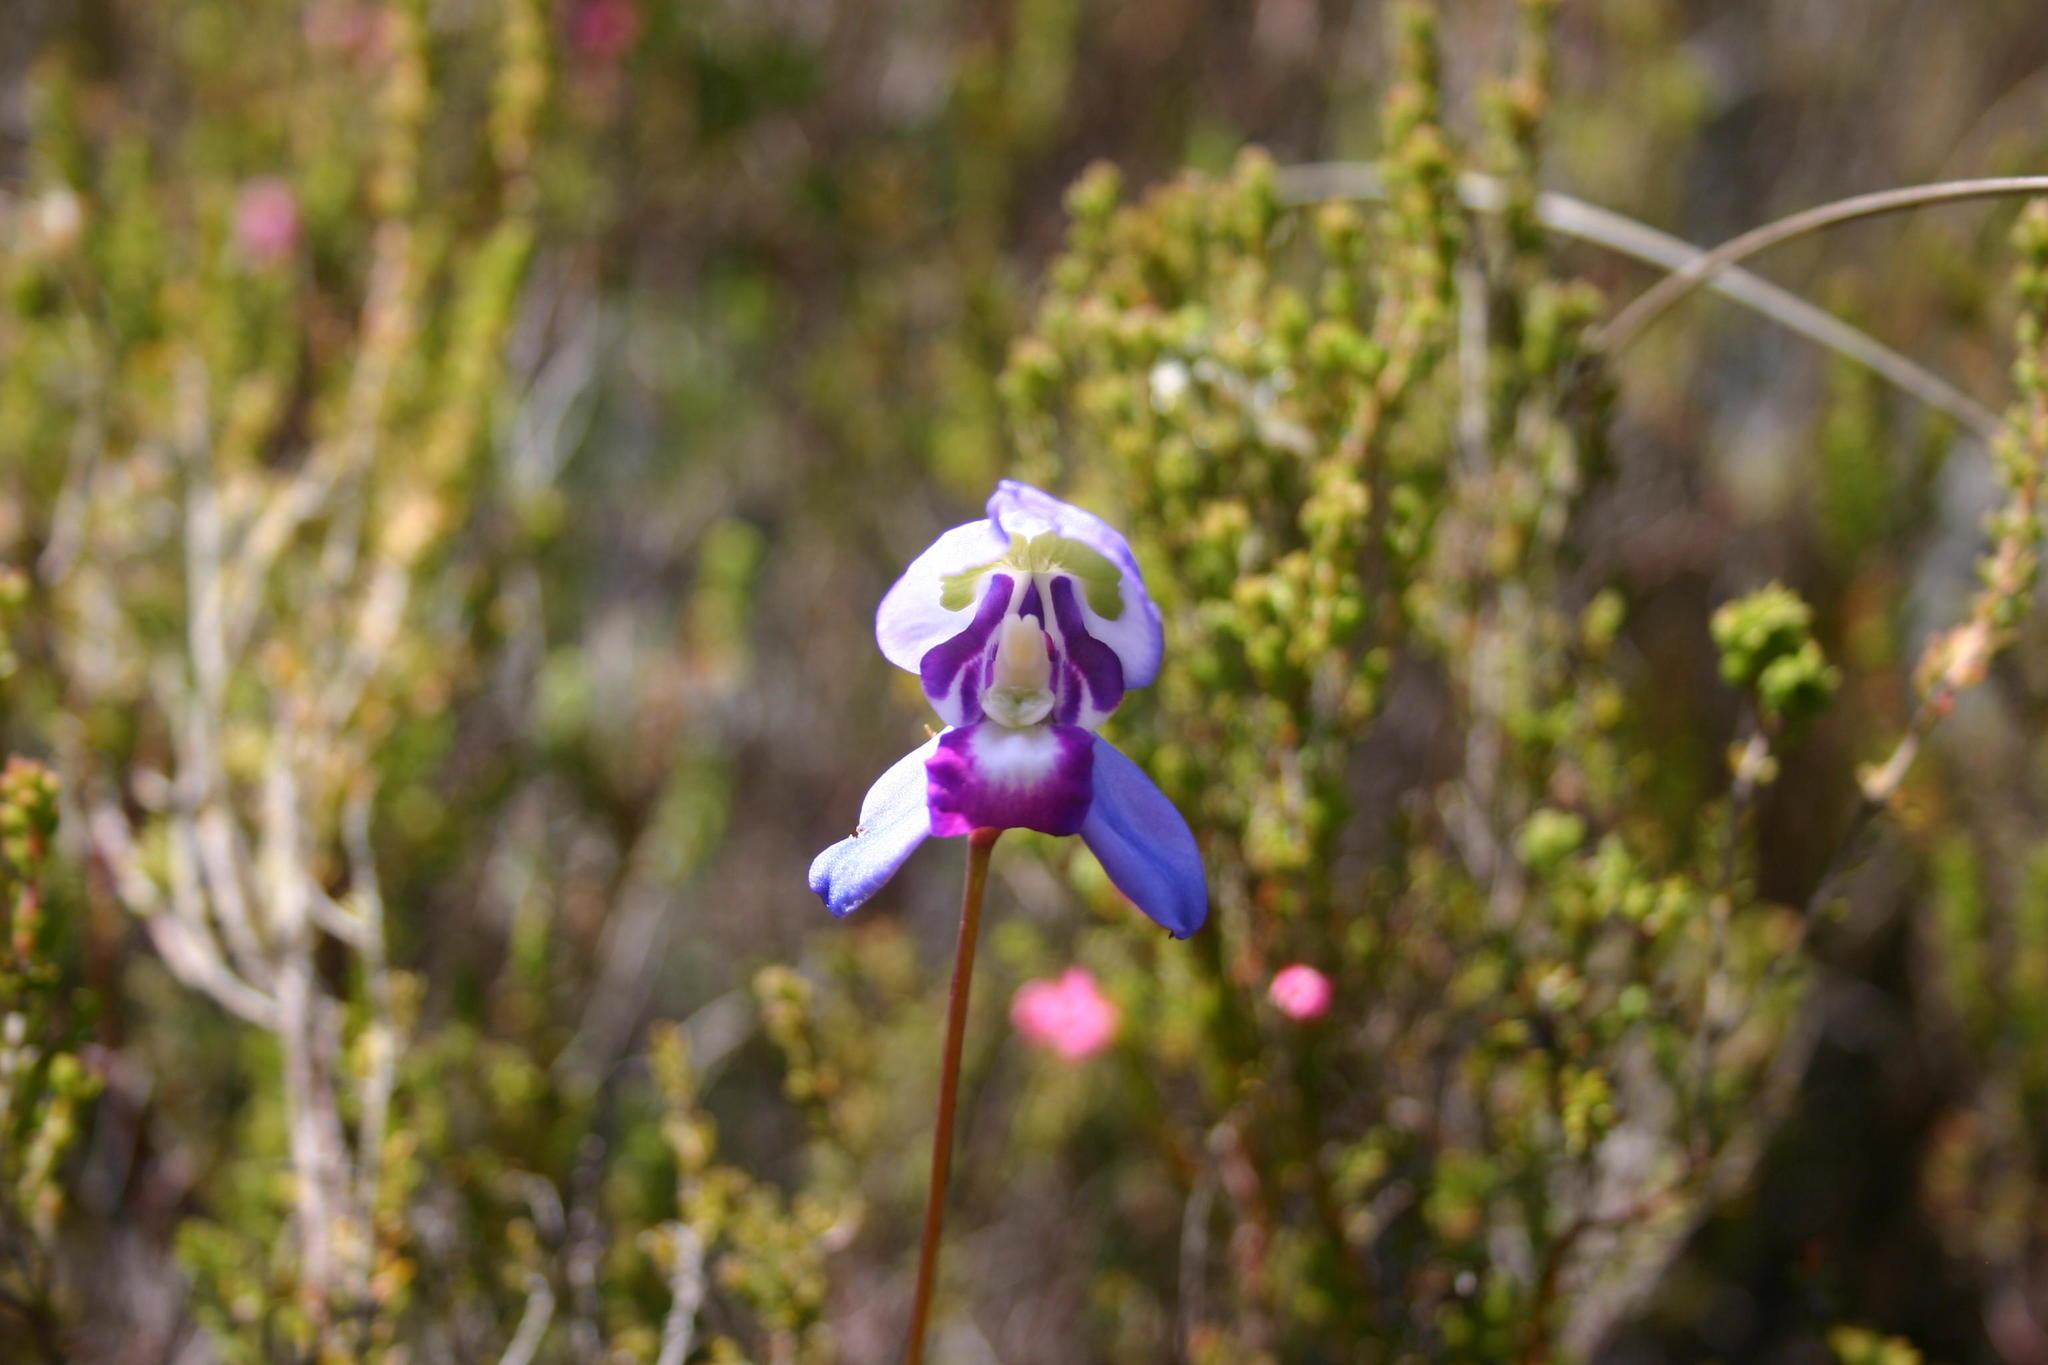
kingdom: Plantae
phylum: Tracheophyta
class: Liliopsida
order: Asparagales
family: Orchidaceae
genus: Disa
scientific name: Disa graminifolia
